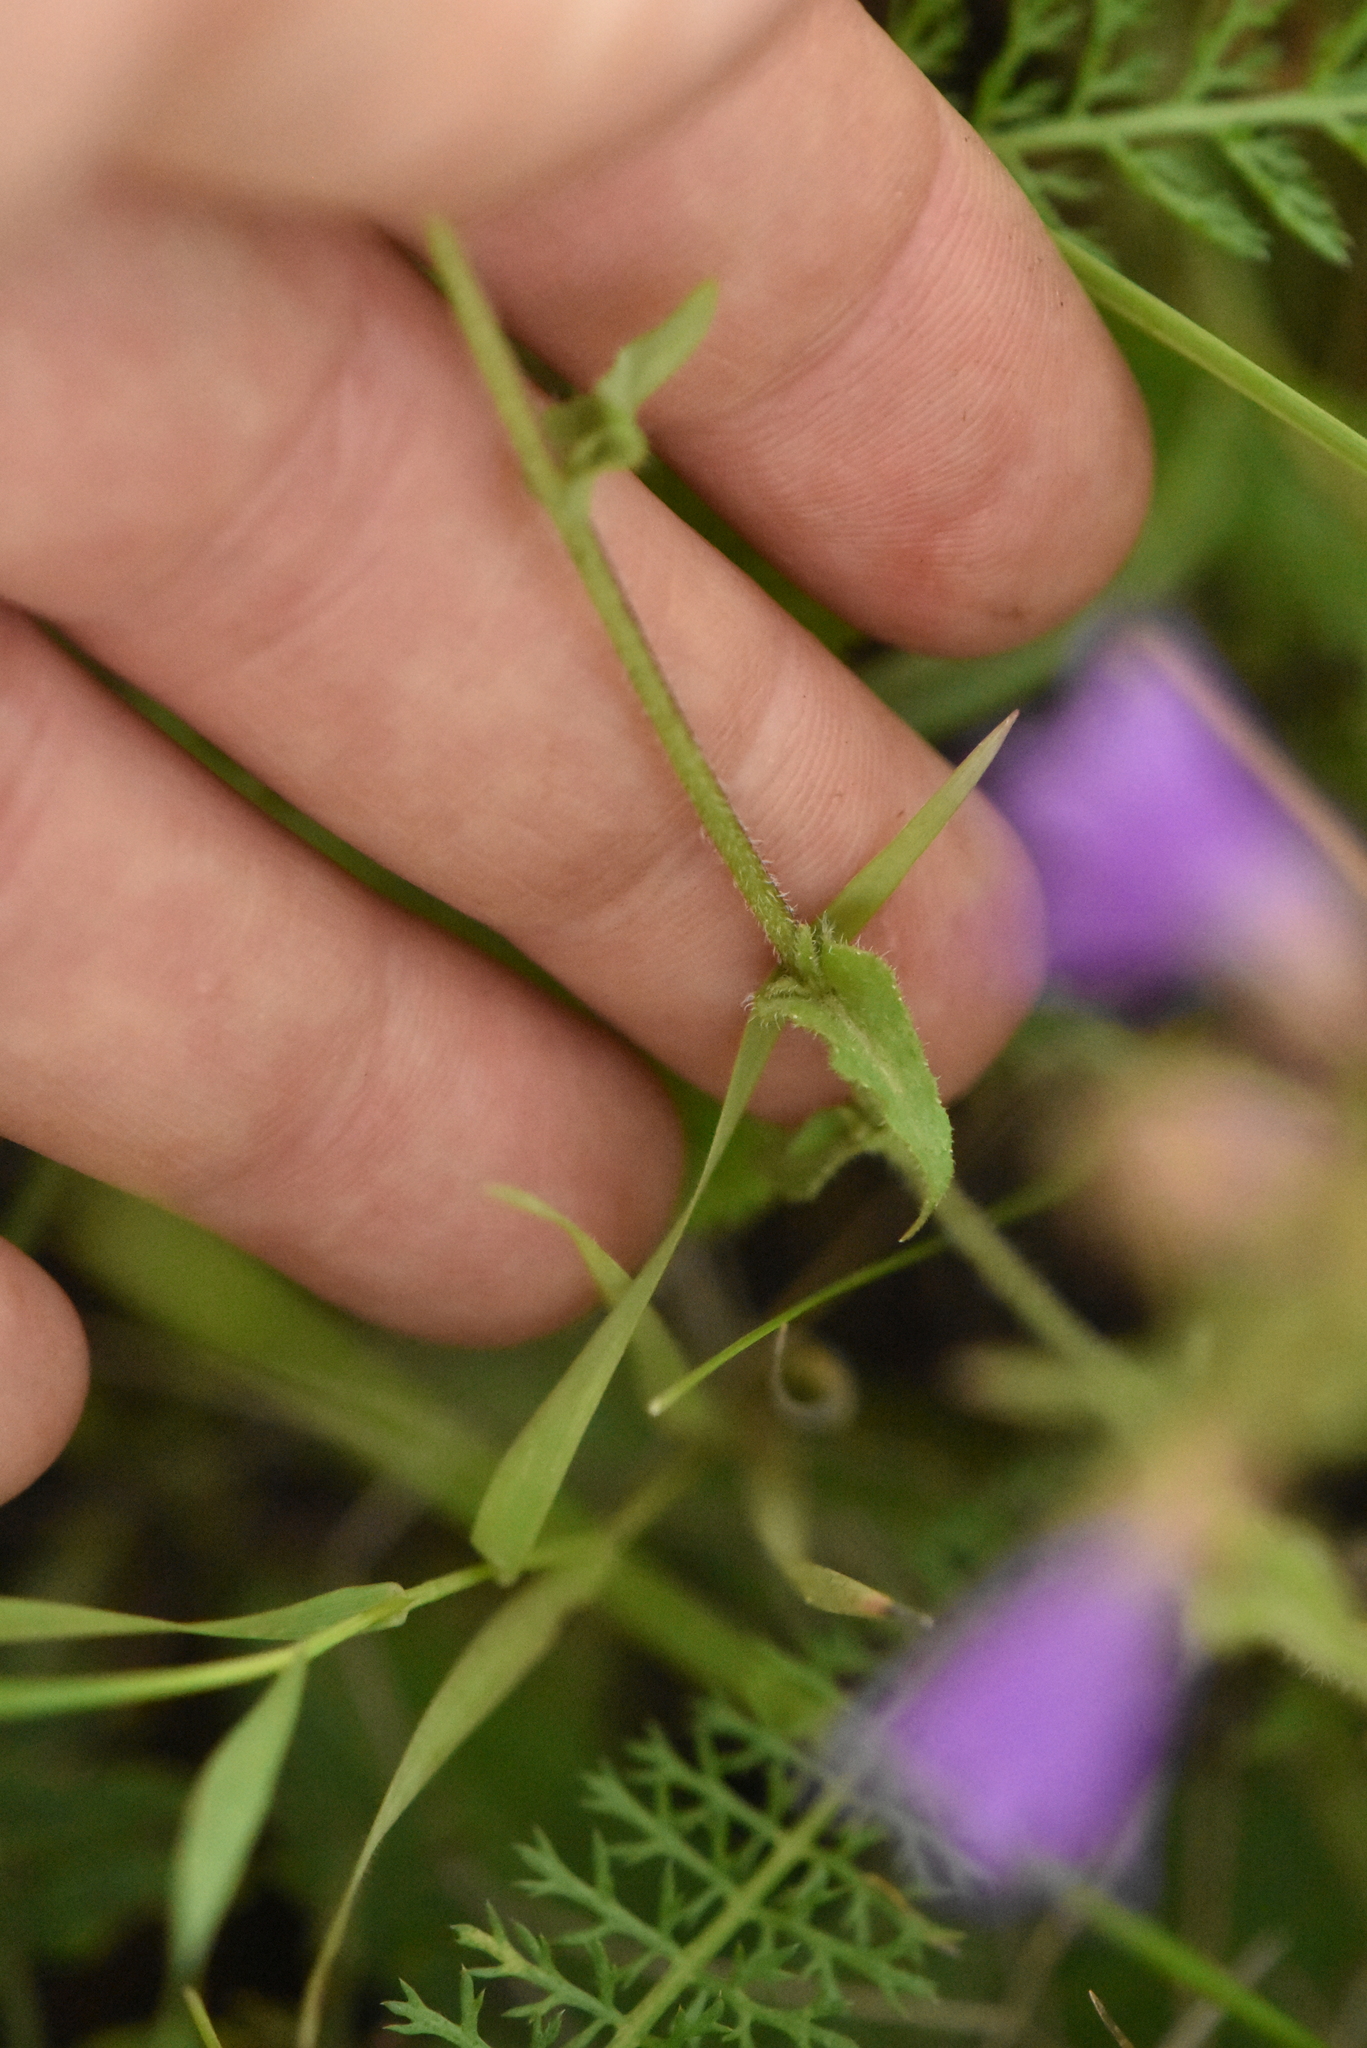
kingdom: Plantae
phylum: Tracheophyta
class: Magnoliopsida
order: Asterales
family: Campanulaceae
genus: Campanula
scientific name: Campanula sibirica
